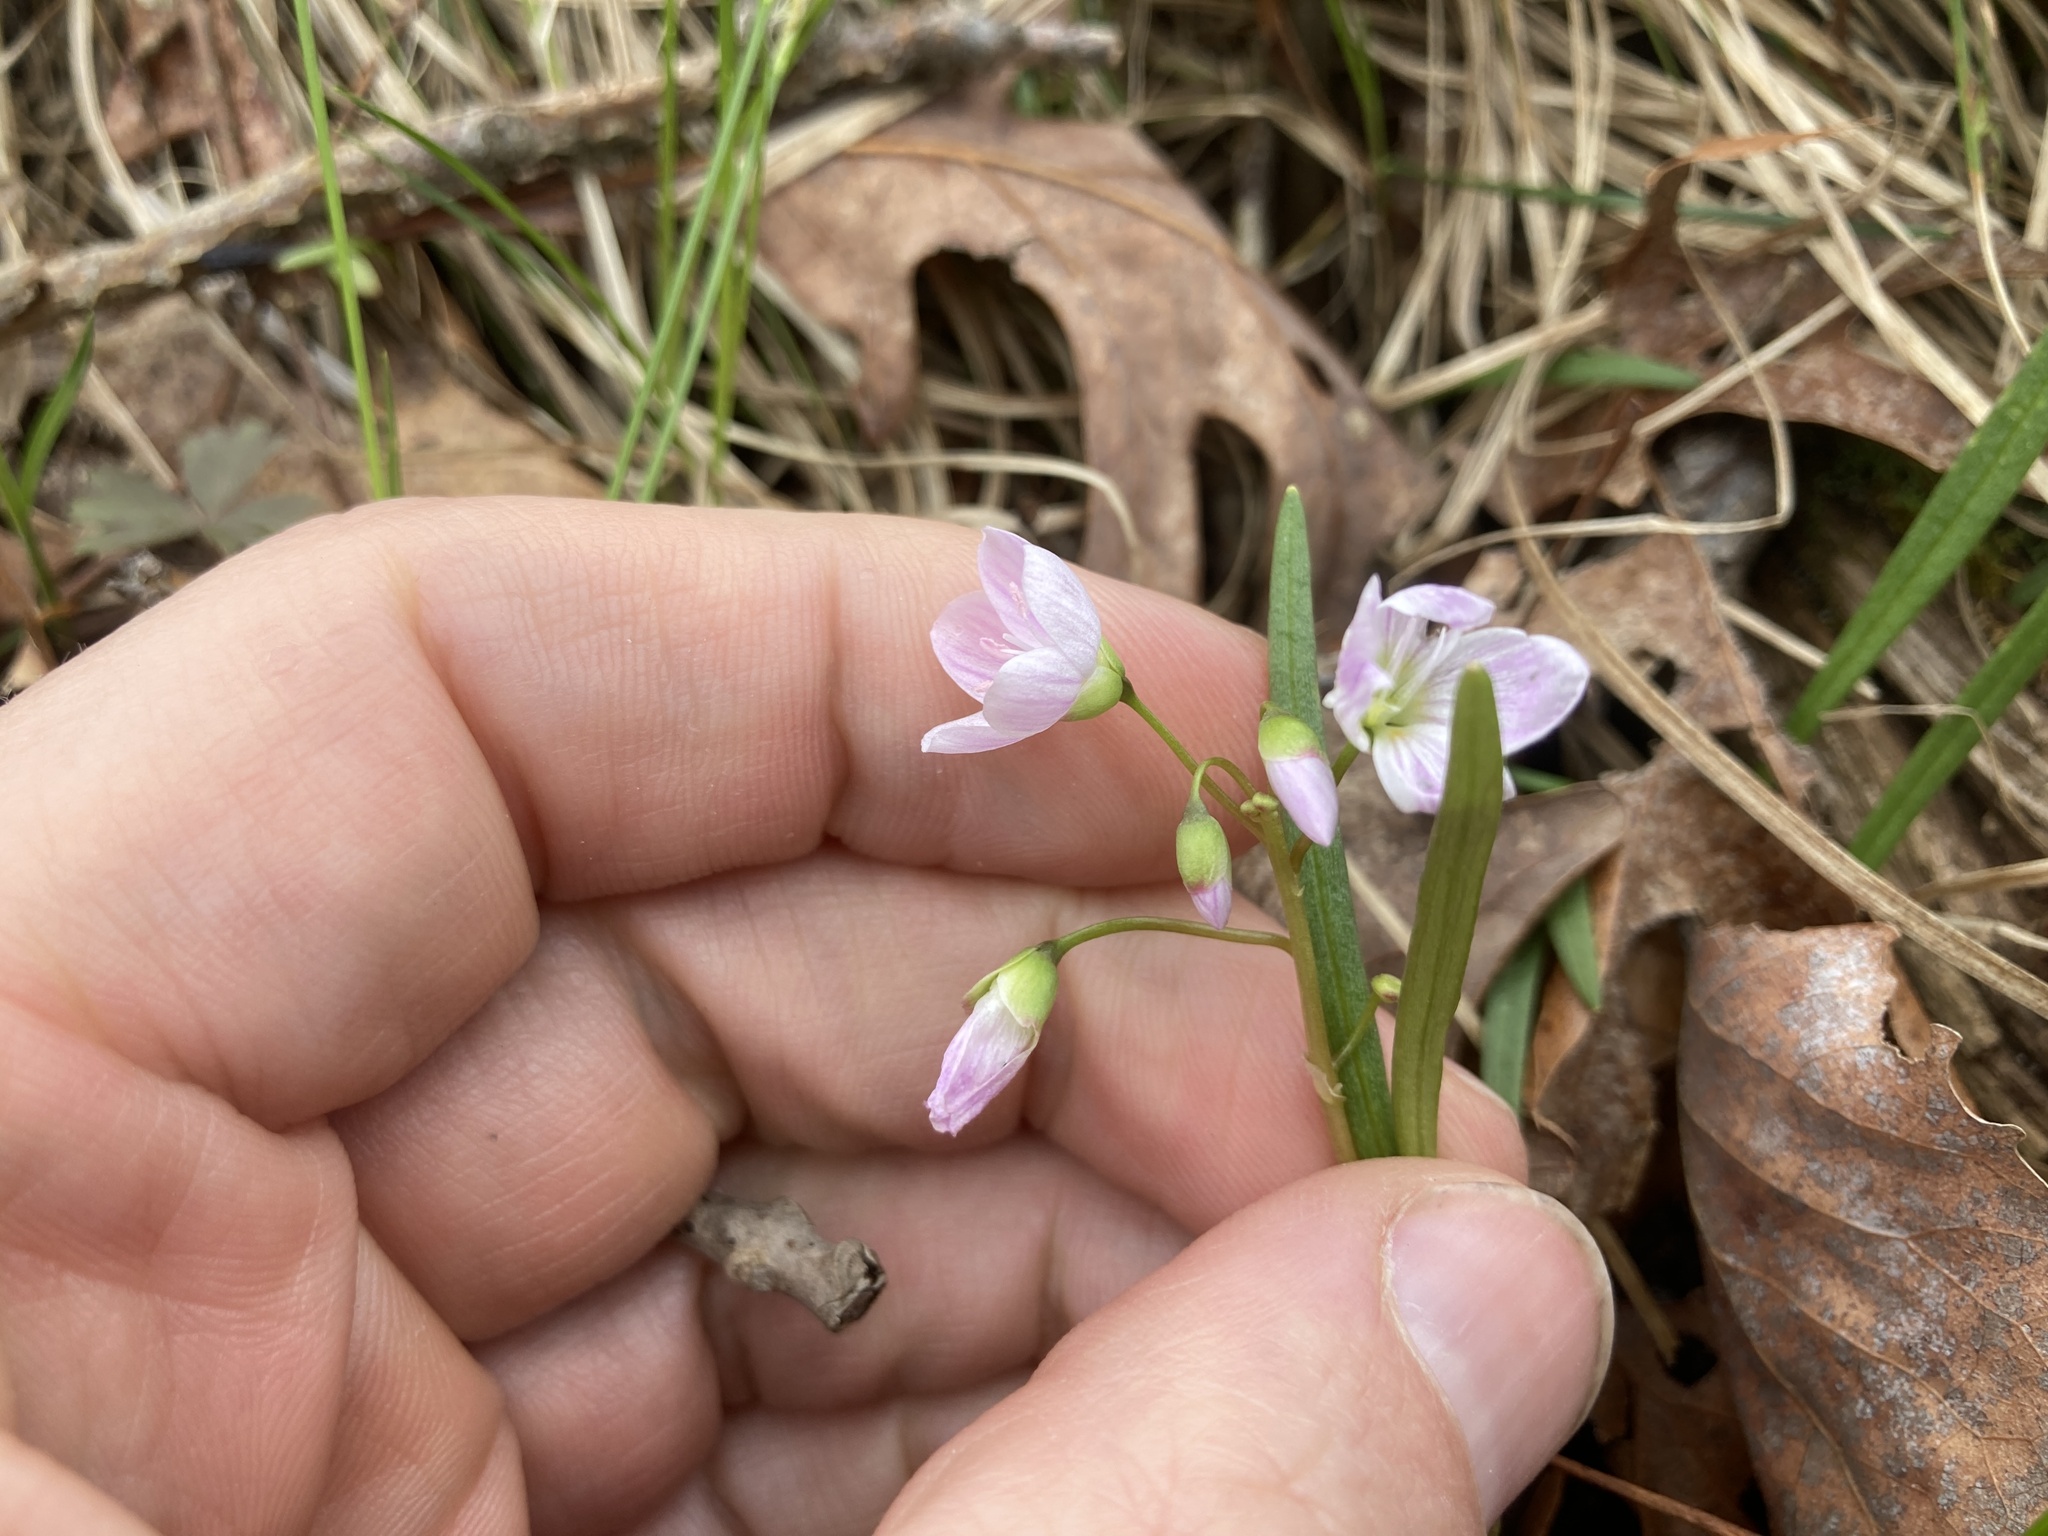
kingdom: Plantae
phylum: Tracheophyta
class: Magnoliopsida
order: Caryophyllales
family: Montiaceae
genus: Claytonia
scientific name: Claytonia virginica
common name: Virginia springbeauty
